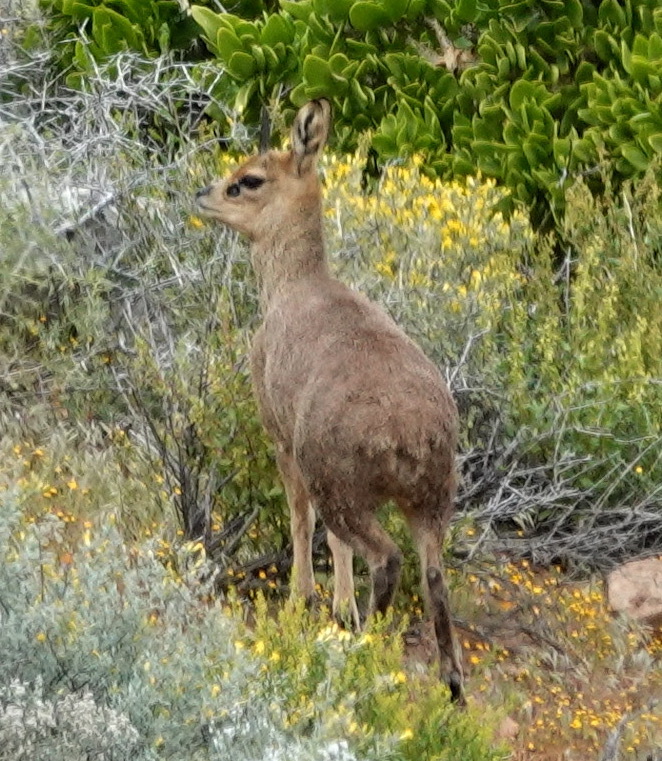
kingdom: Animalia
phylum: Chordata
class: Mammalia
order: Artiodactyla
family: Bovidae
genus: Oreotragus
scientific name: Oreotragus oreotragus
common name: Klipspringer
